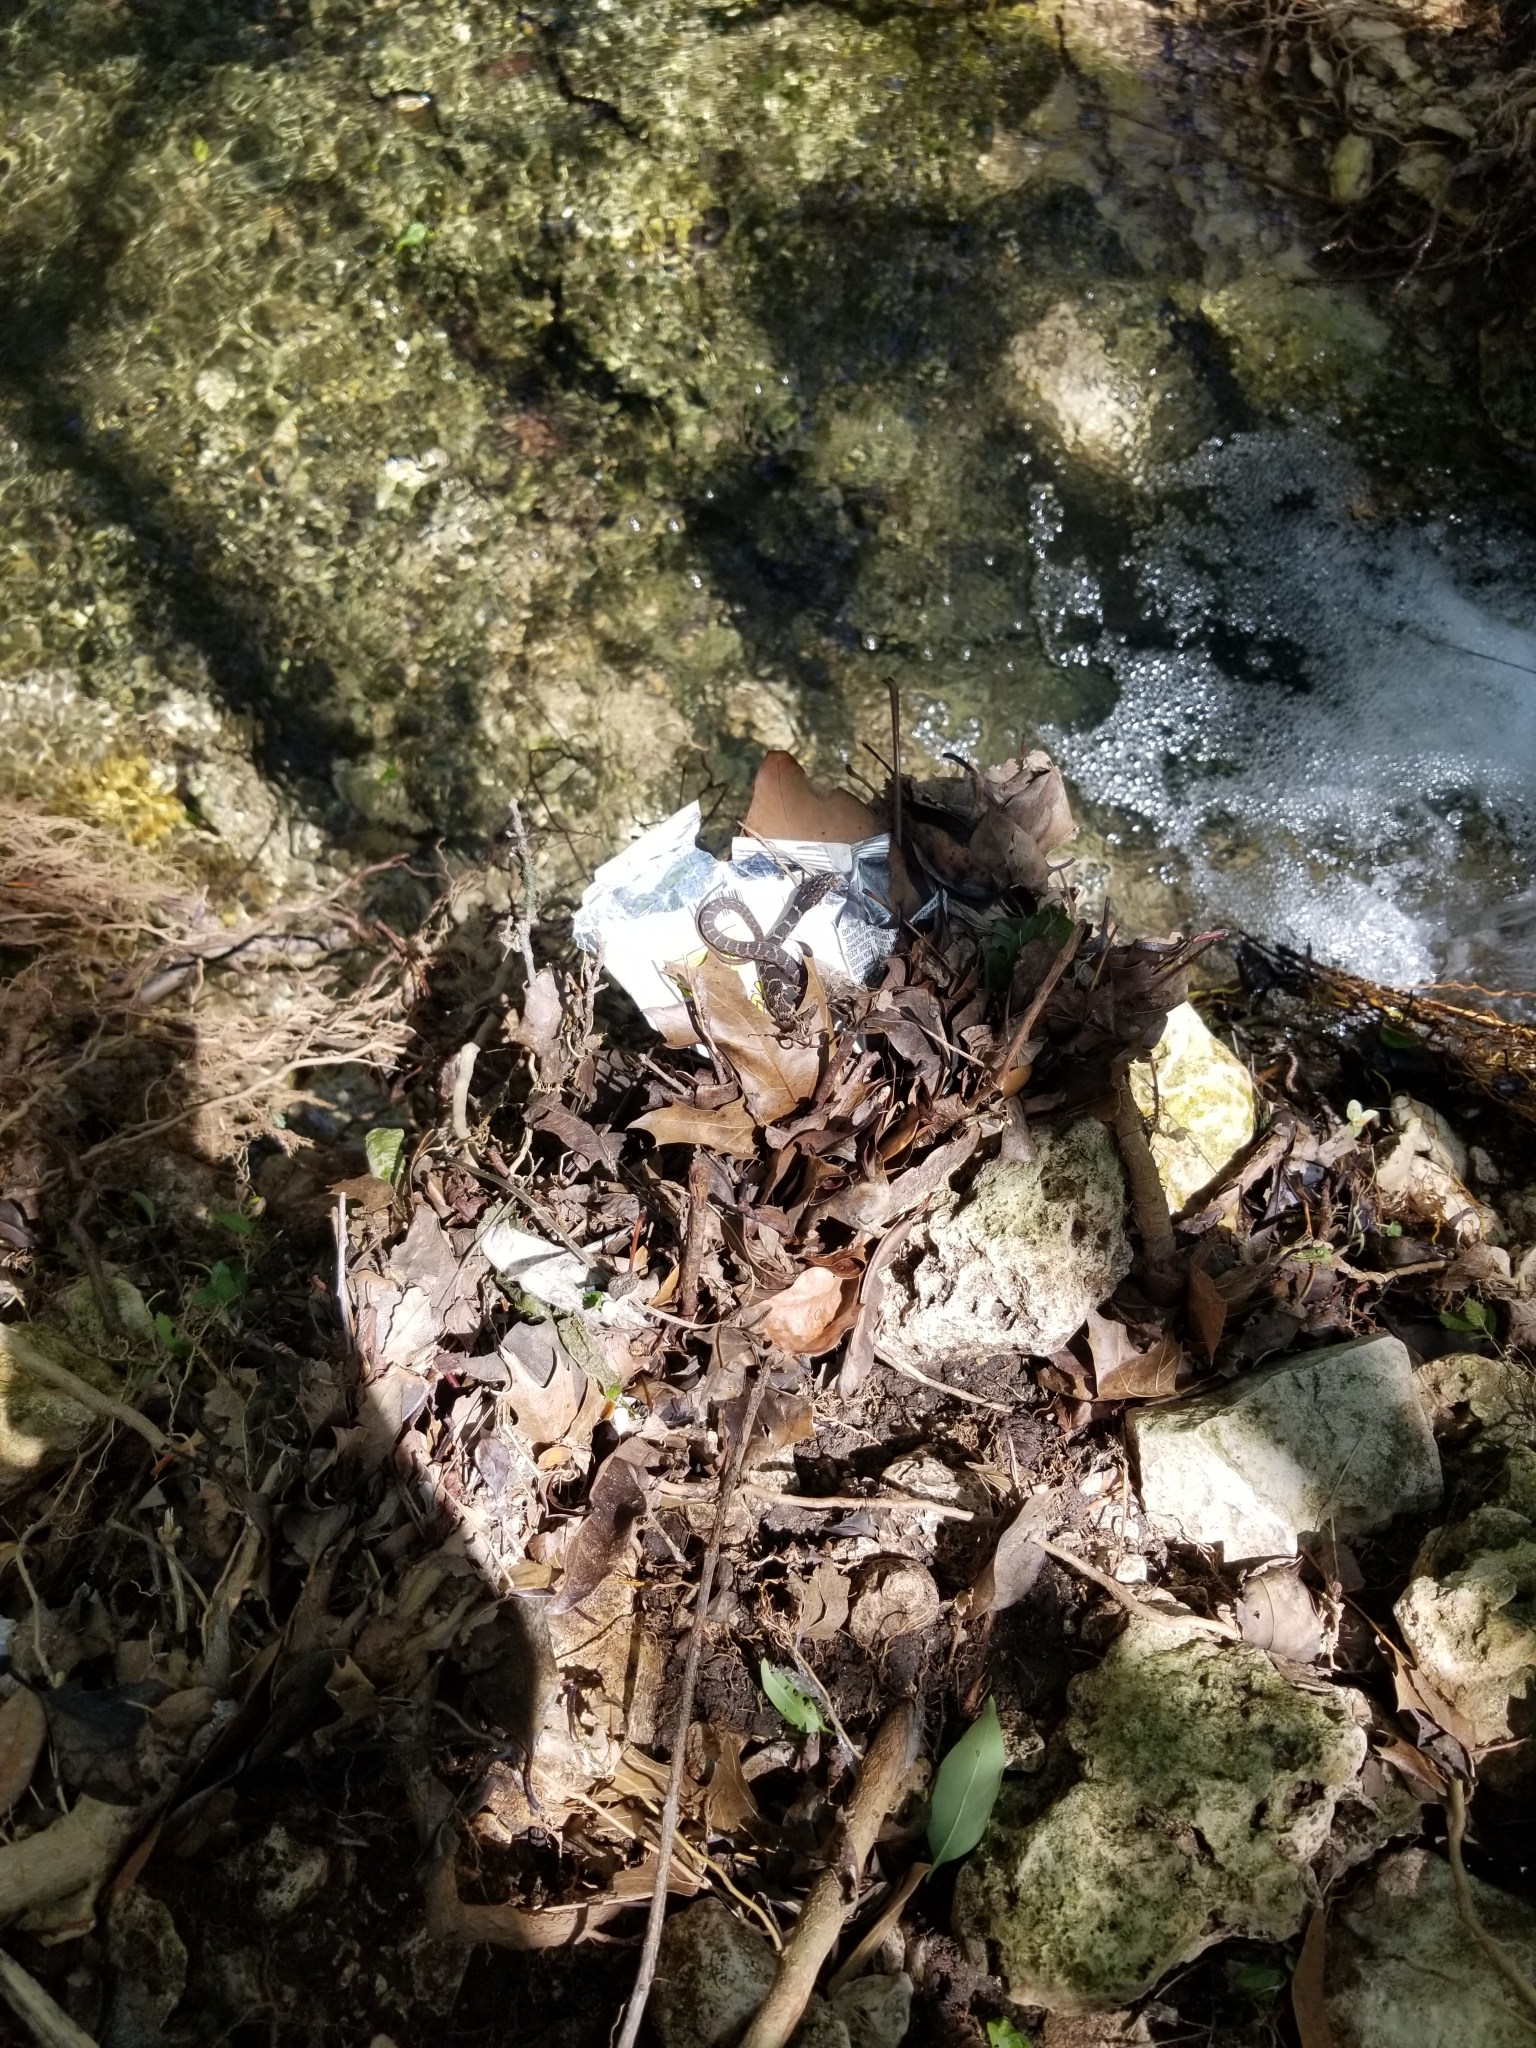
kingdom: Animalia
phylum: Chordata
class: Squamata
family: Colubridae
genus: Nerodia
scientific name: Nerodia erythrogaster
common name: Plainbelly water snake
